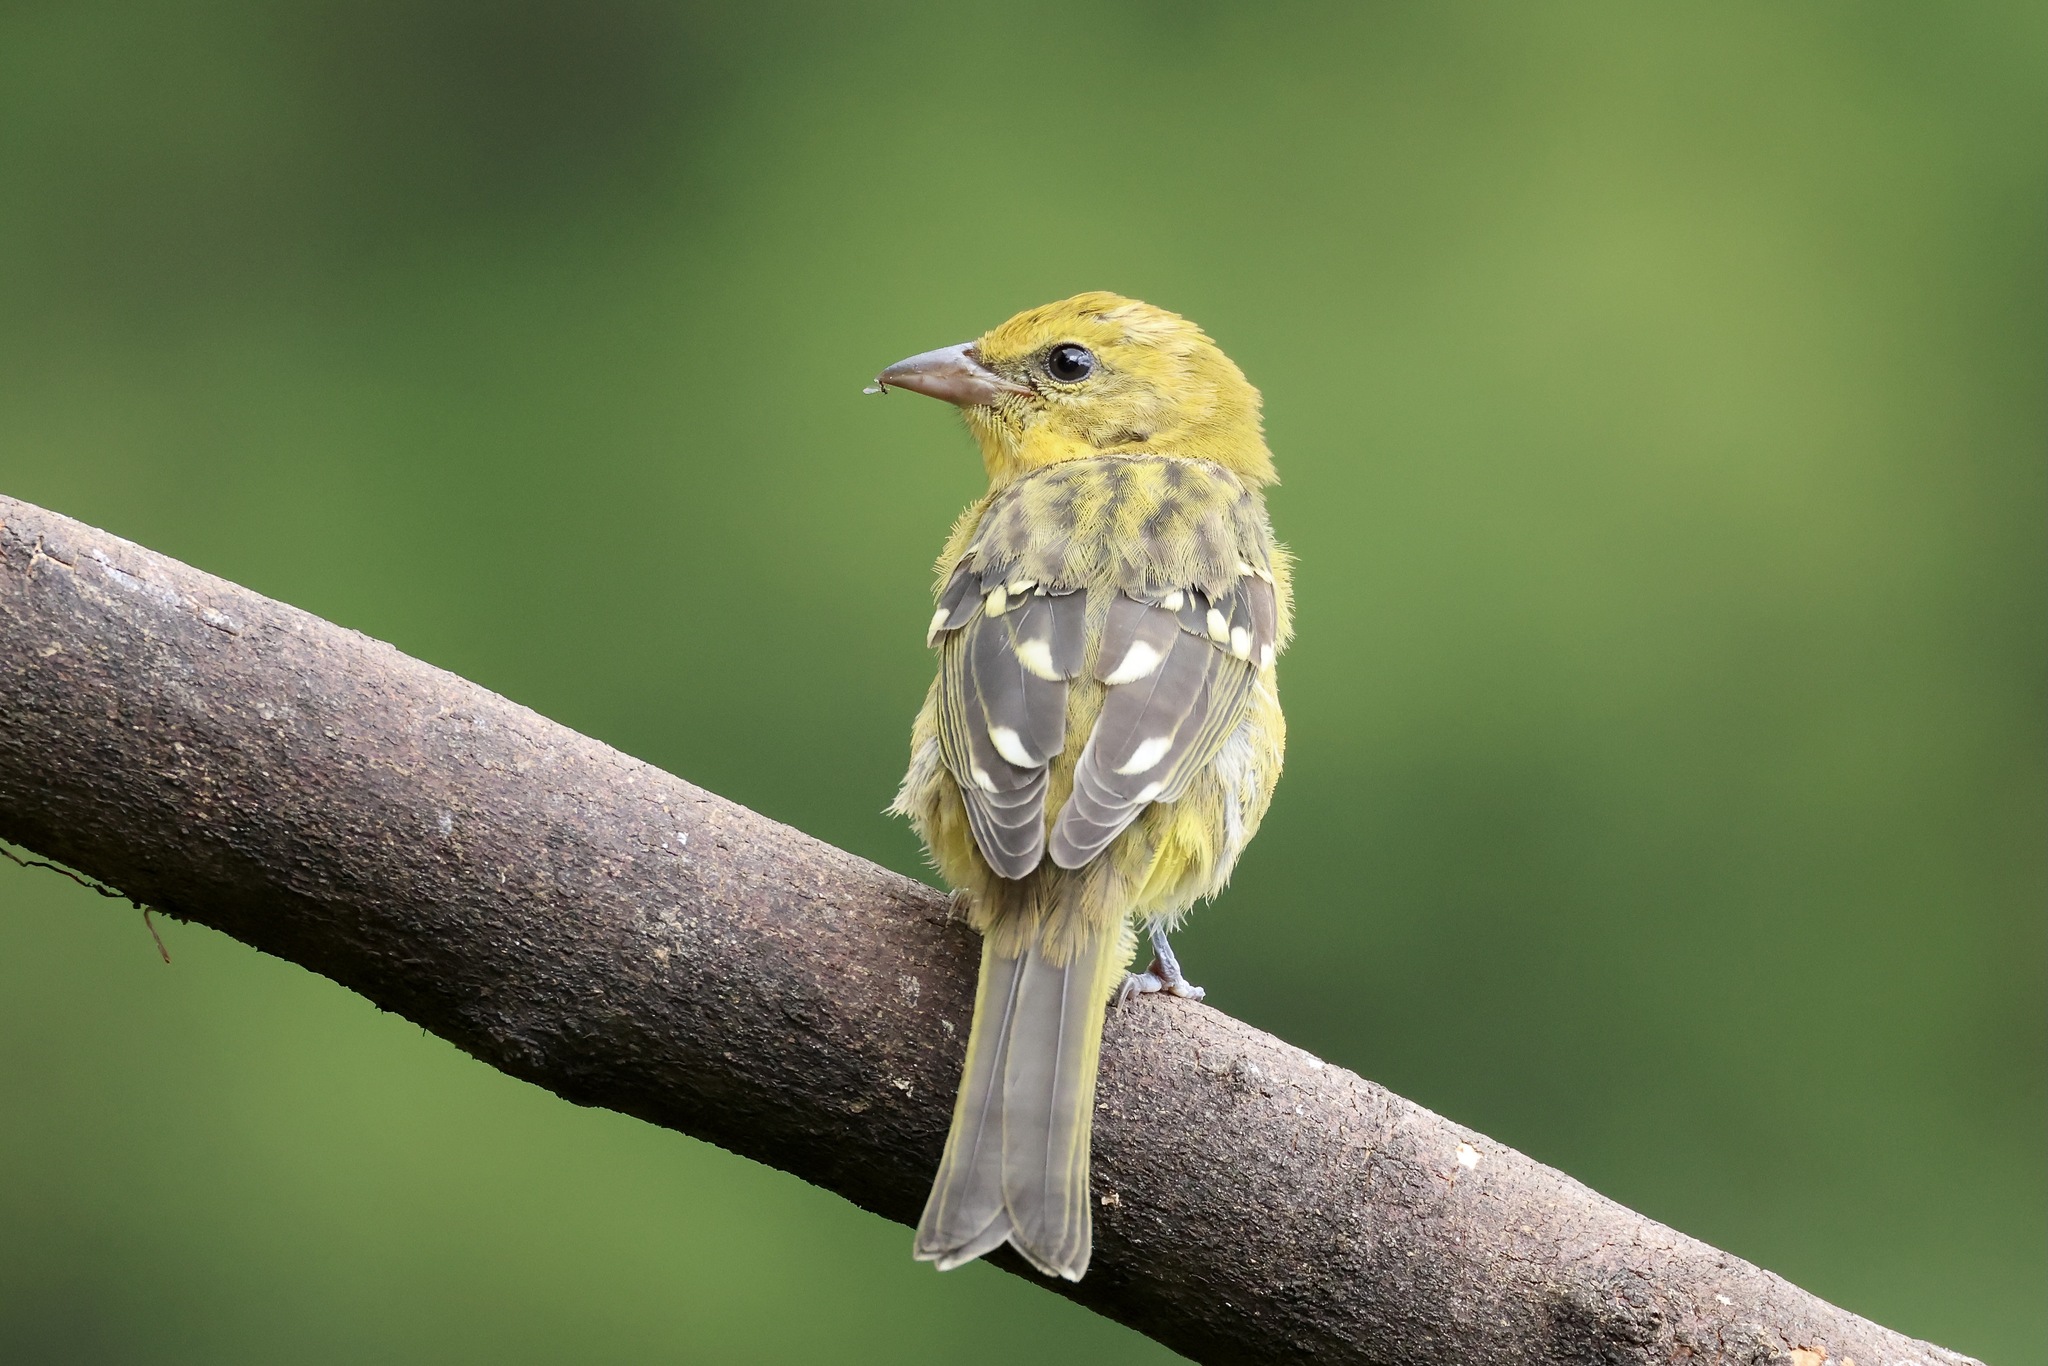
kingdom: Animalia
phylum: Chordata
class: Aves
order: Passeriformes
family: Cardinalidae
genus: Piranga
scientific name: Piranga bidentata
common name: Flame-colored tanager
